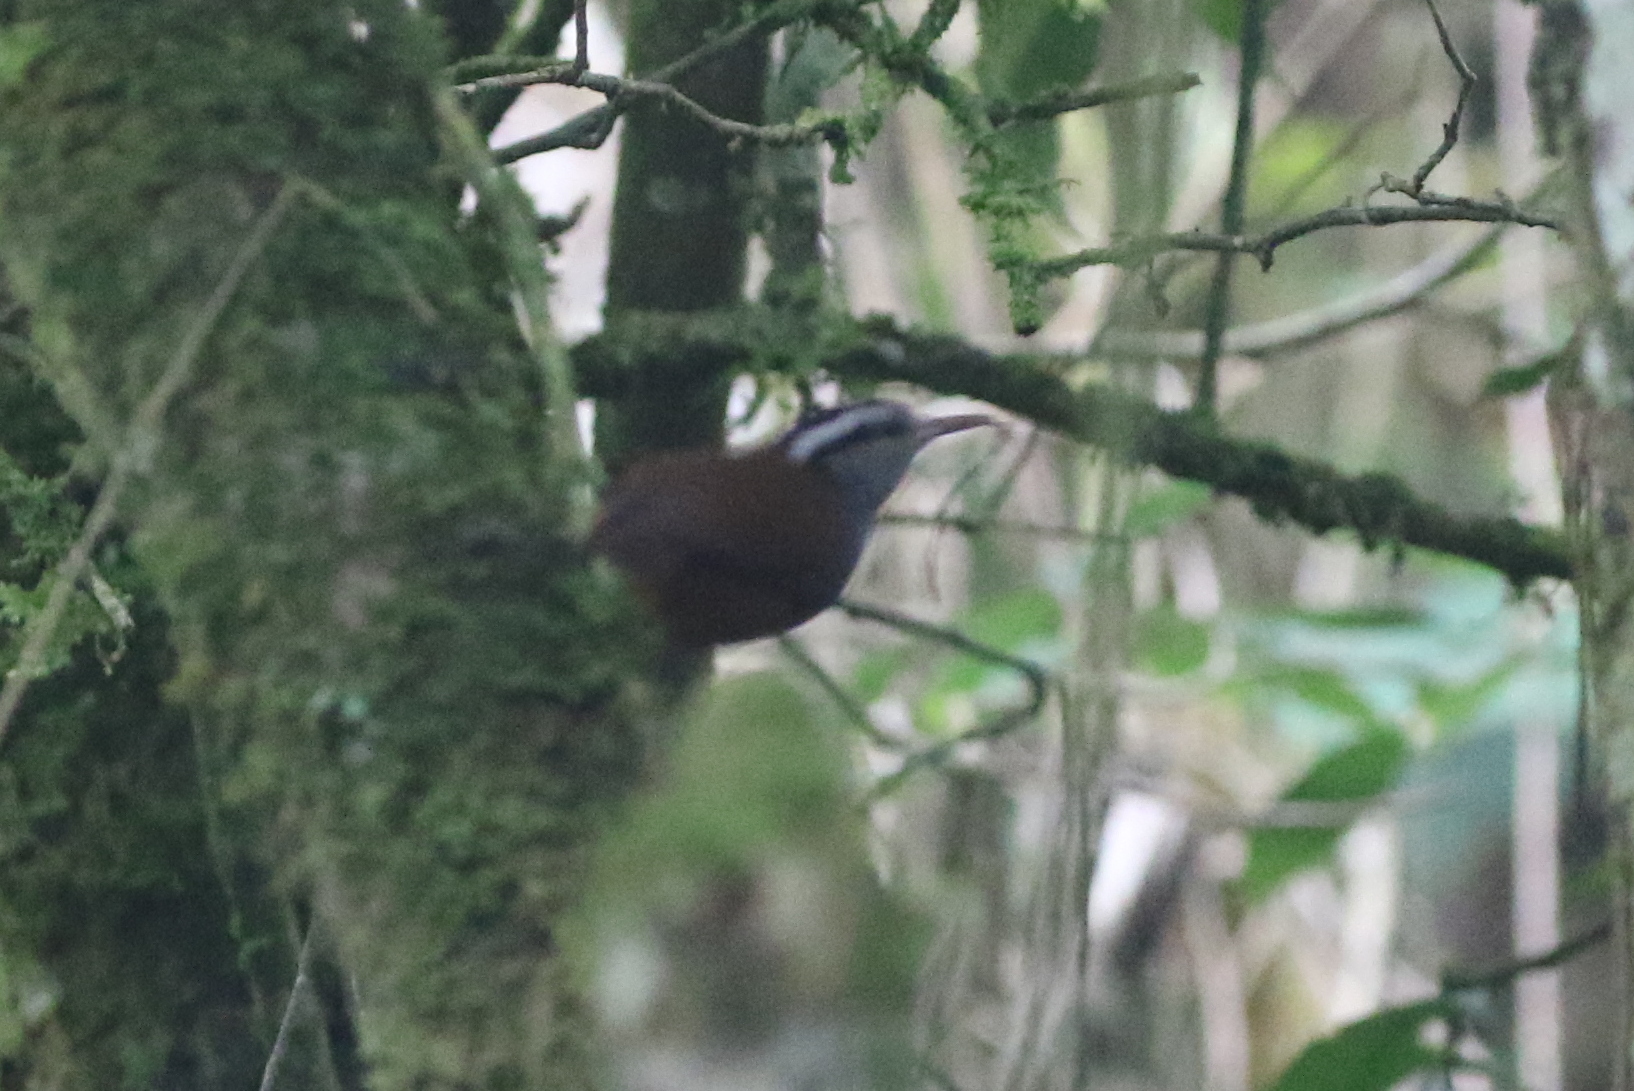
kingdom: Animalia
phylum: Chordata
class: Aves
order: Passeriformes
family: Troglodytidae
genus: Henicorhina
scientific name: Henicorhina leucophrys
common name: Gray-breasted wood-wren
